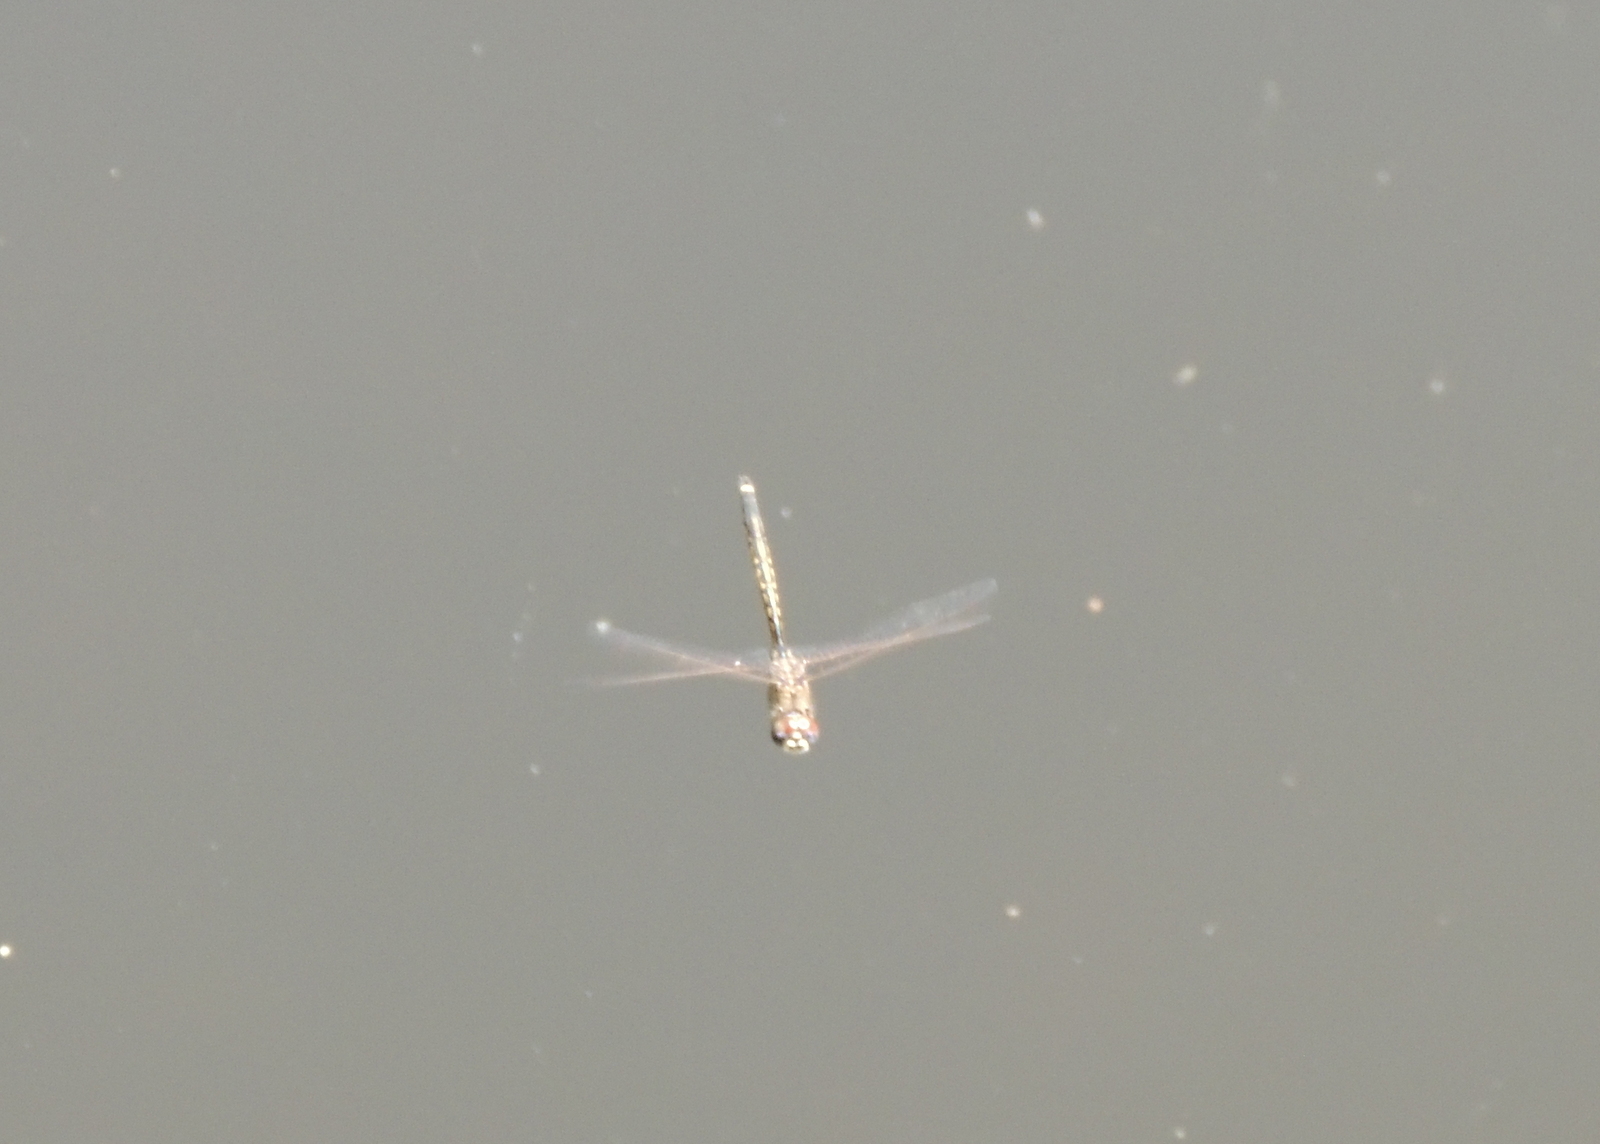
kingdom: Animalia
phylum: Arthropoda
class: Insecta
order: Odonata
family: Corduliidae
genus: Hemicordulia
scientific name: Hemicordulia tau
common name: Tau emerald
